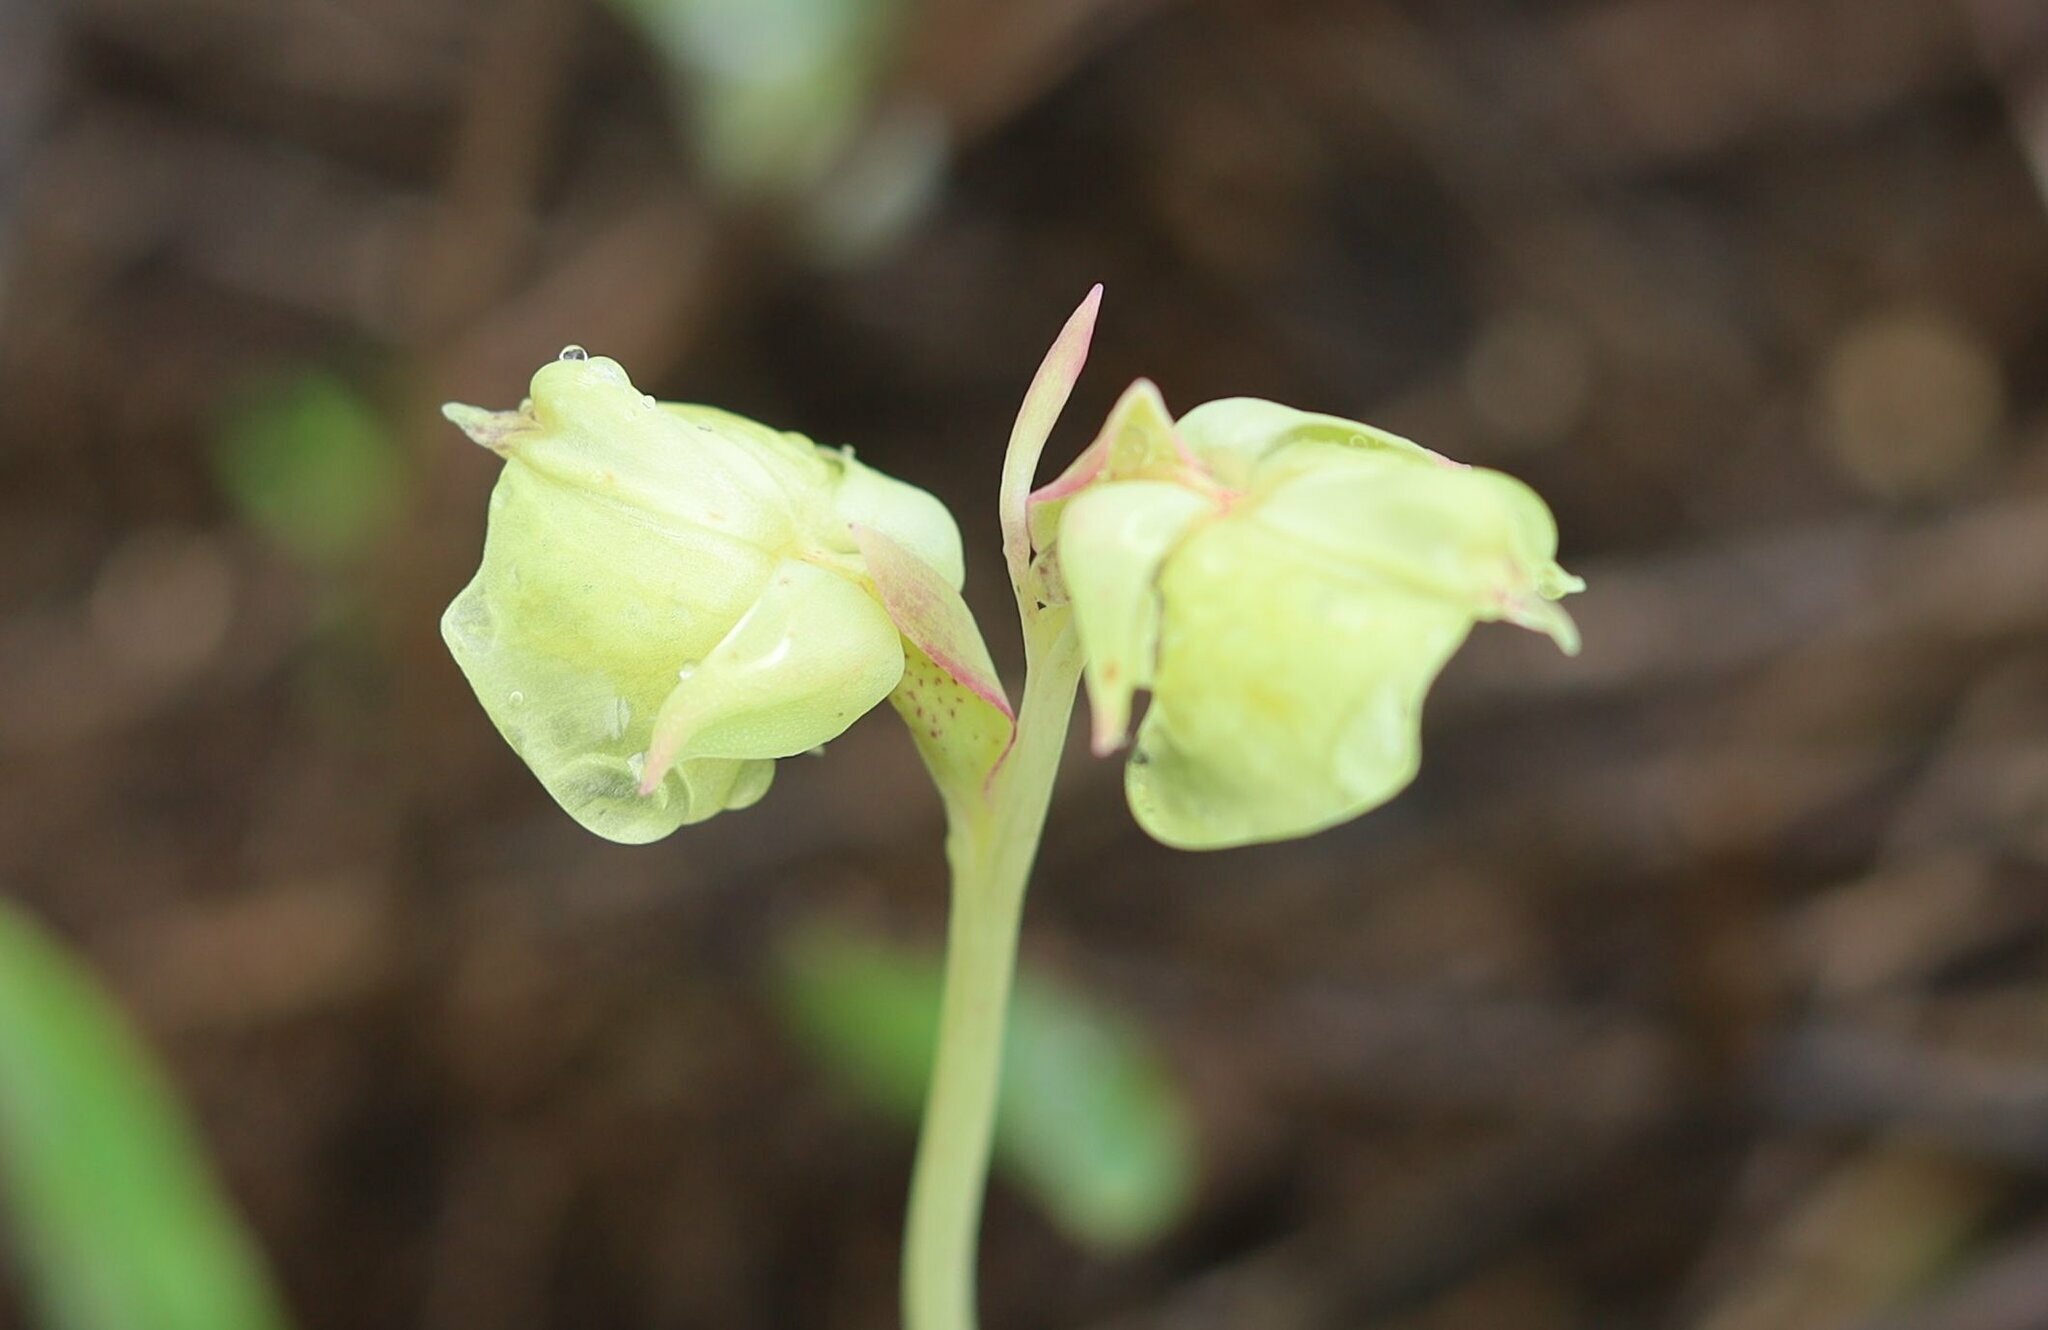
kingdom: Plantae
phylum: Tracheophyta
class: Liliopsida
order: Asparagales
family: Orchidaceae
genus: Pterygodium
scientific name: Pterygodium catholicum
